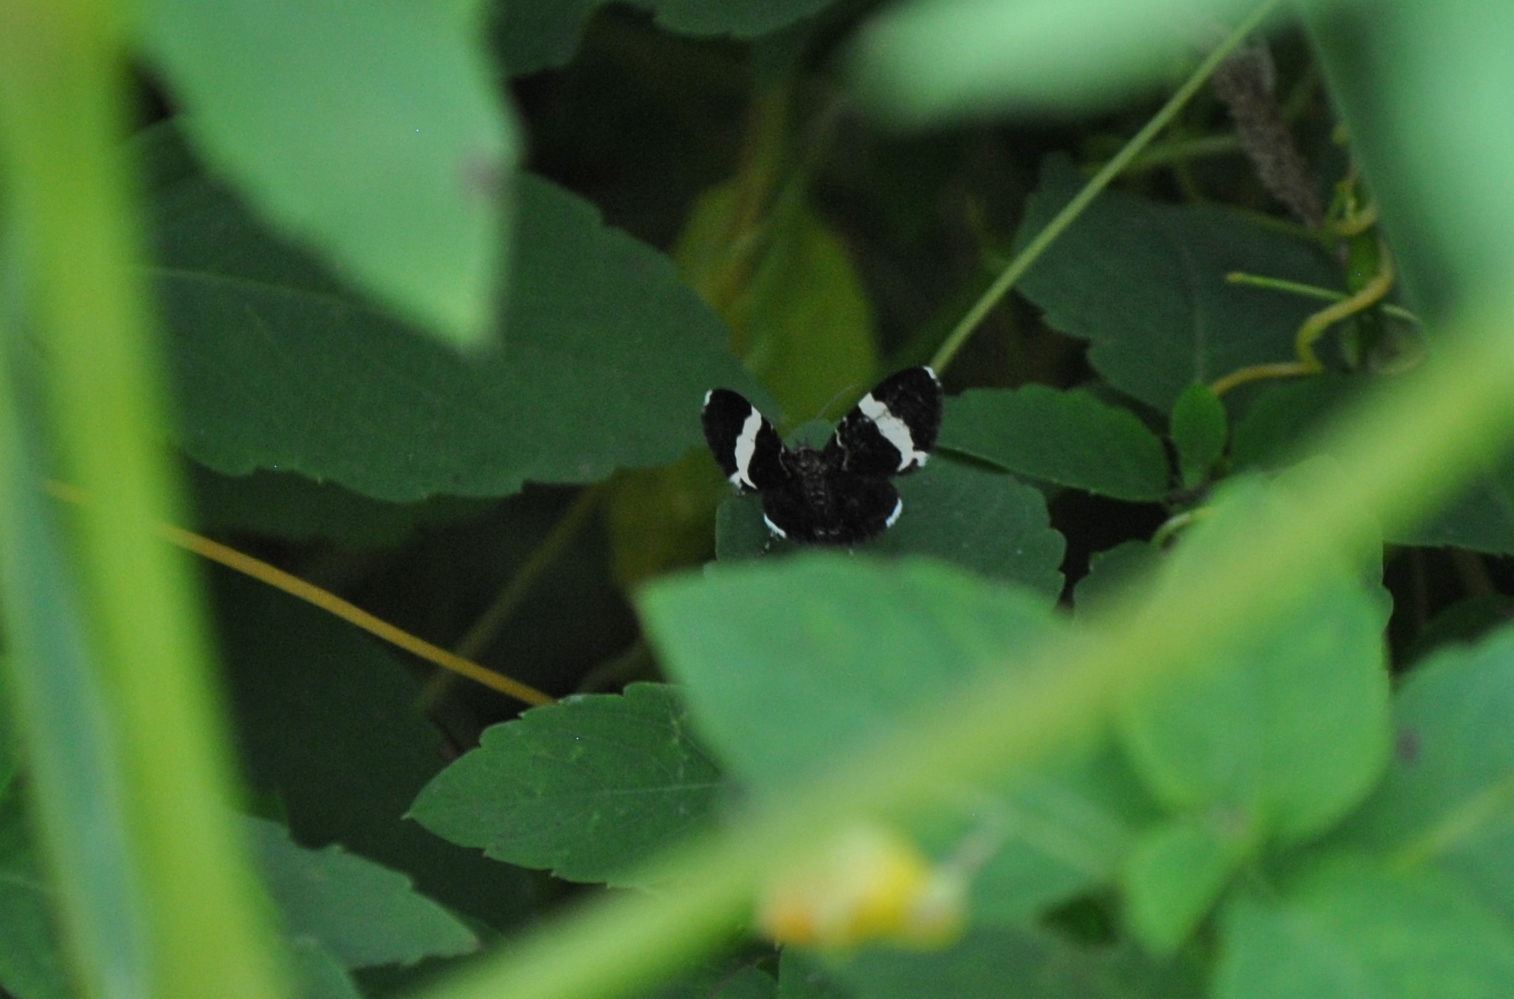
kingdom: Animalia
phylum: Arthropoda
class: Insecta
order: Lepidoptera
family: Geometridae
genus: Trichodezia
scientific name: Trichodezia albovittata
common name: White striped black
